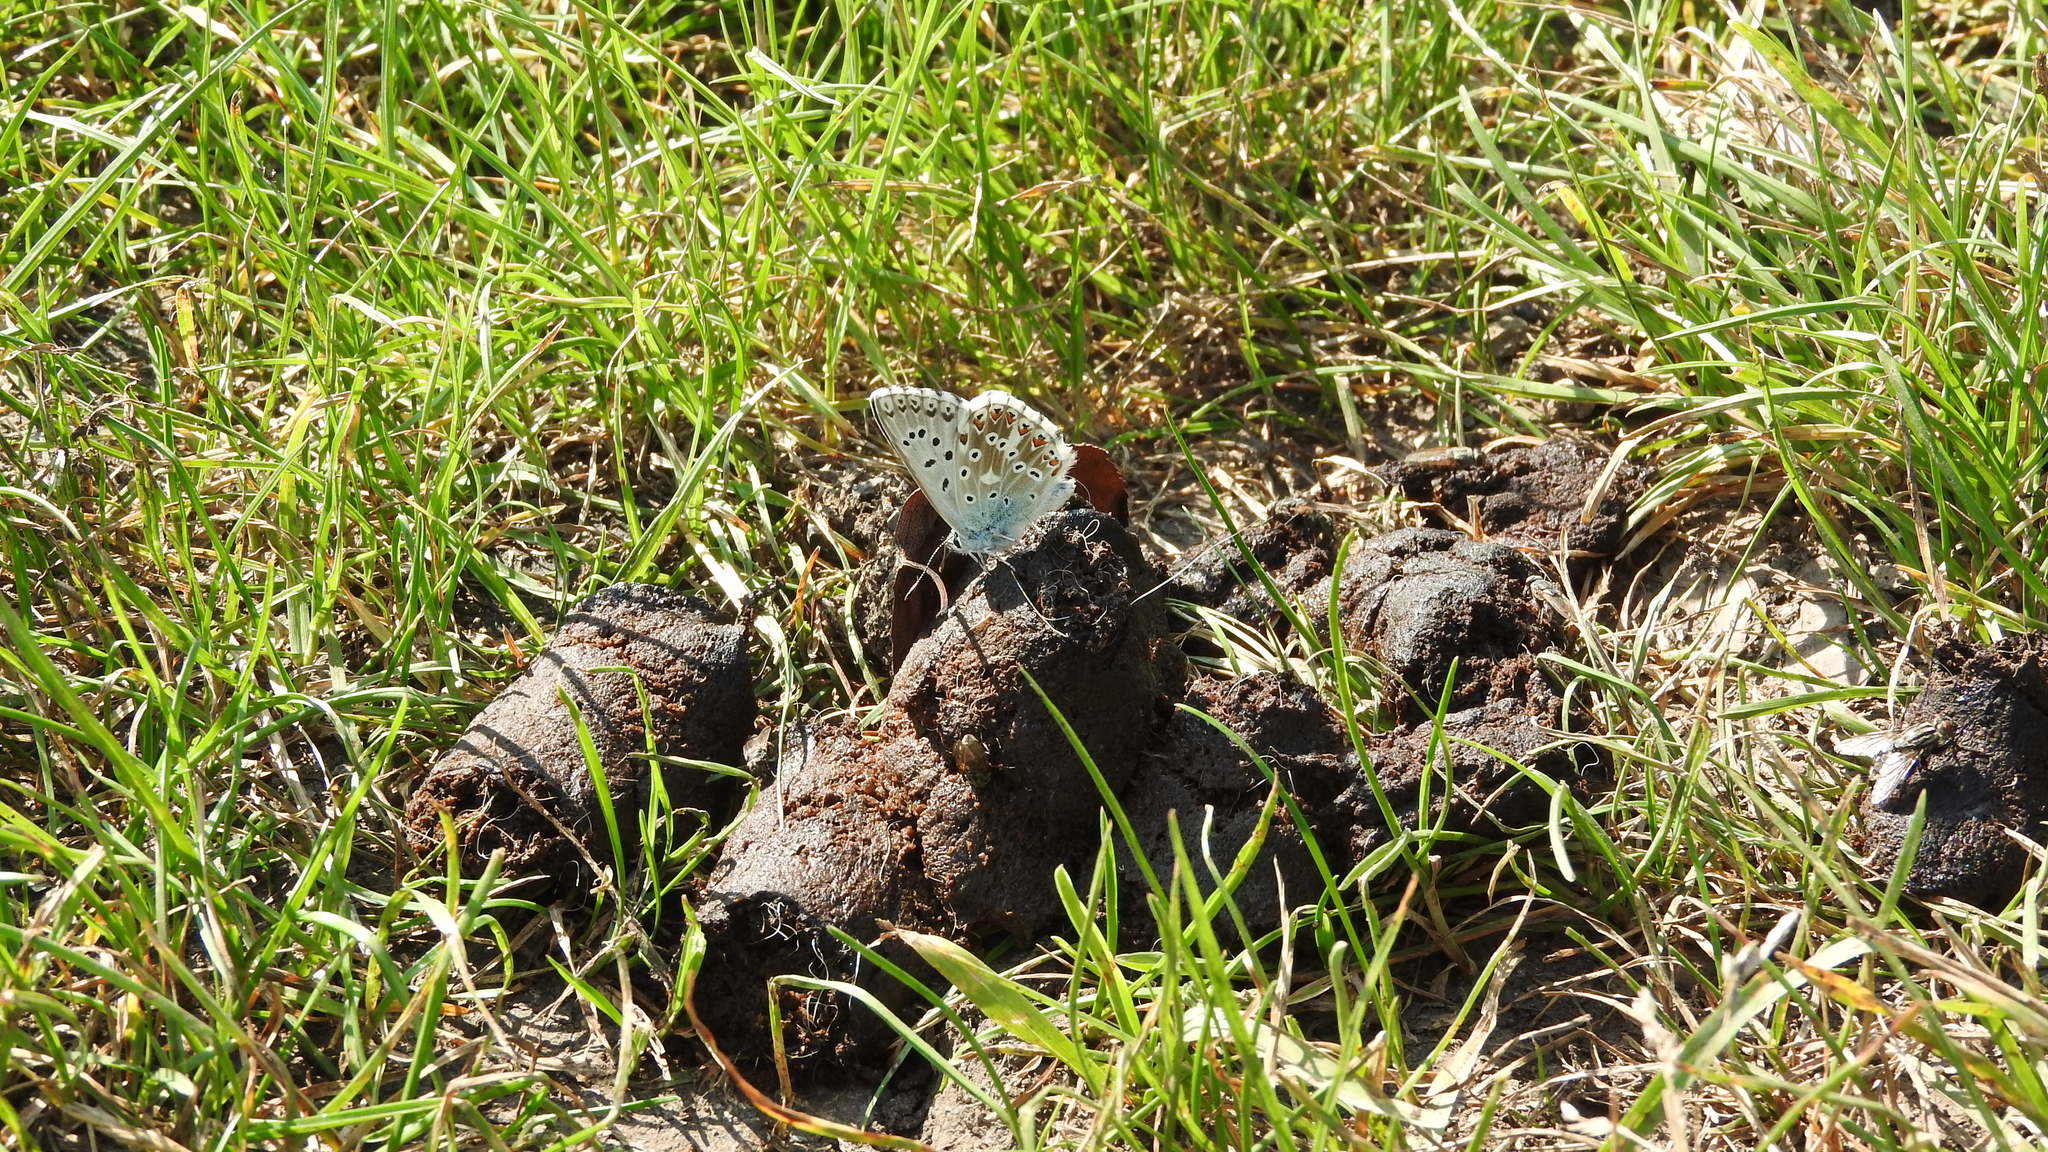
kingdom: Animalia
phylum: Arthropoda
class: Insecta
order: Lepidoptera
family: Lycaenidae
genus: Lysandra
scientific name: Lysandra coridon
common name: Chalkhill blue
